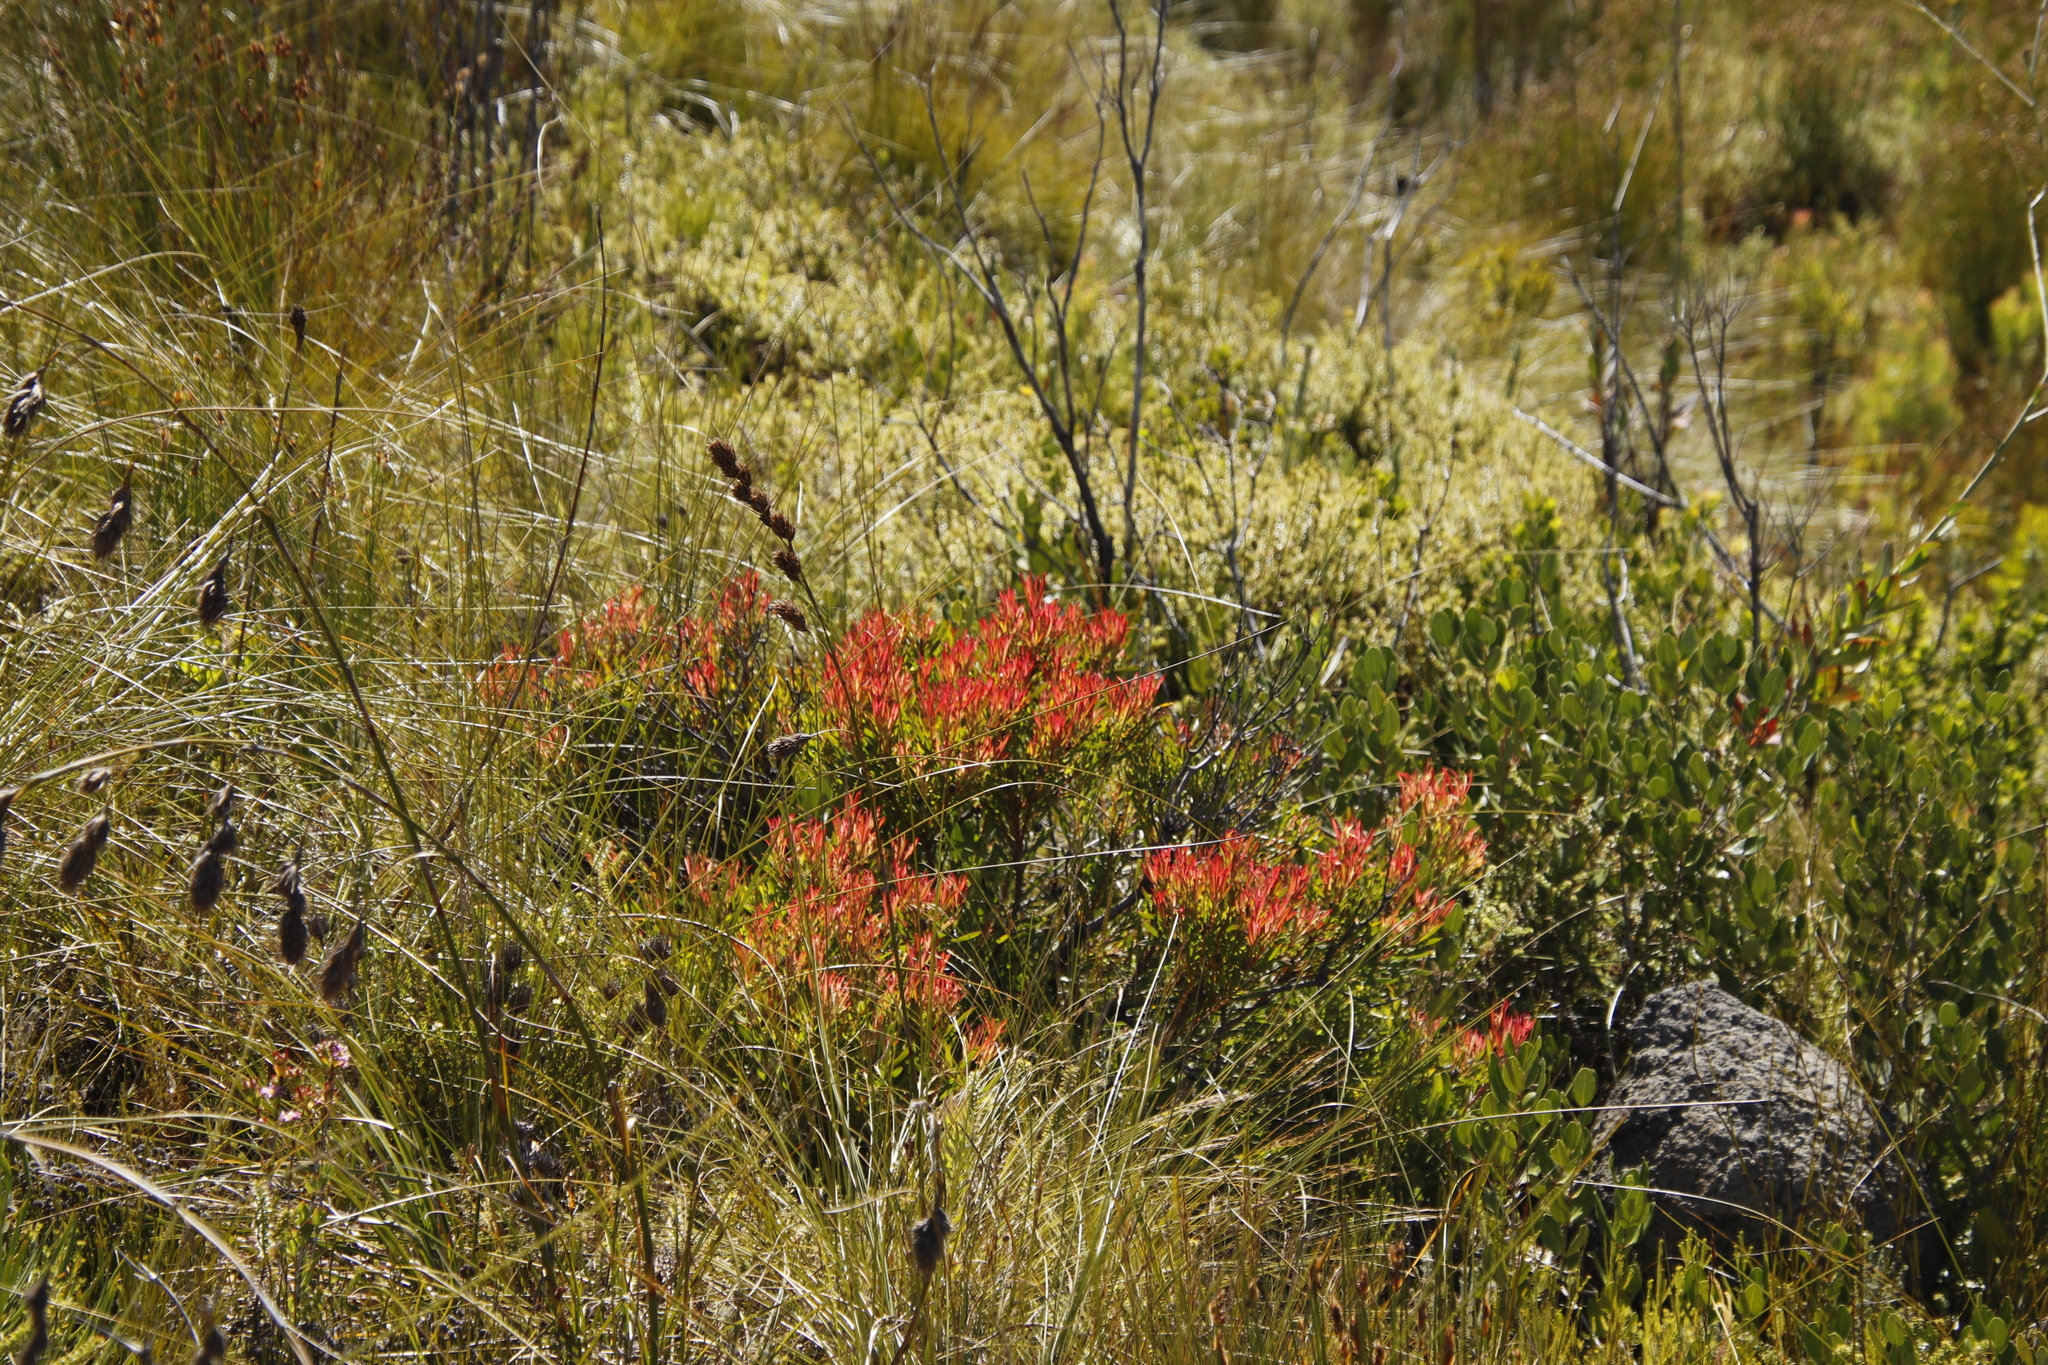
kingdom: Plantae
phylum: Tracheophyta
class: Magnoliopsida
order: Proteales
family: Proteaceae
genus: Leucadendron
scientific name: Leucadendron salignum
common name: Common sunshine conebush
